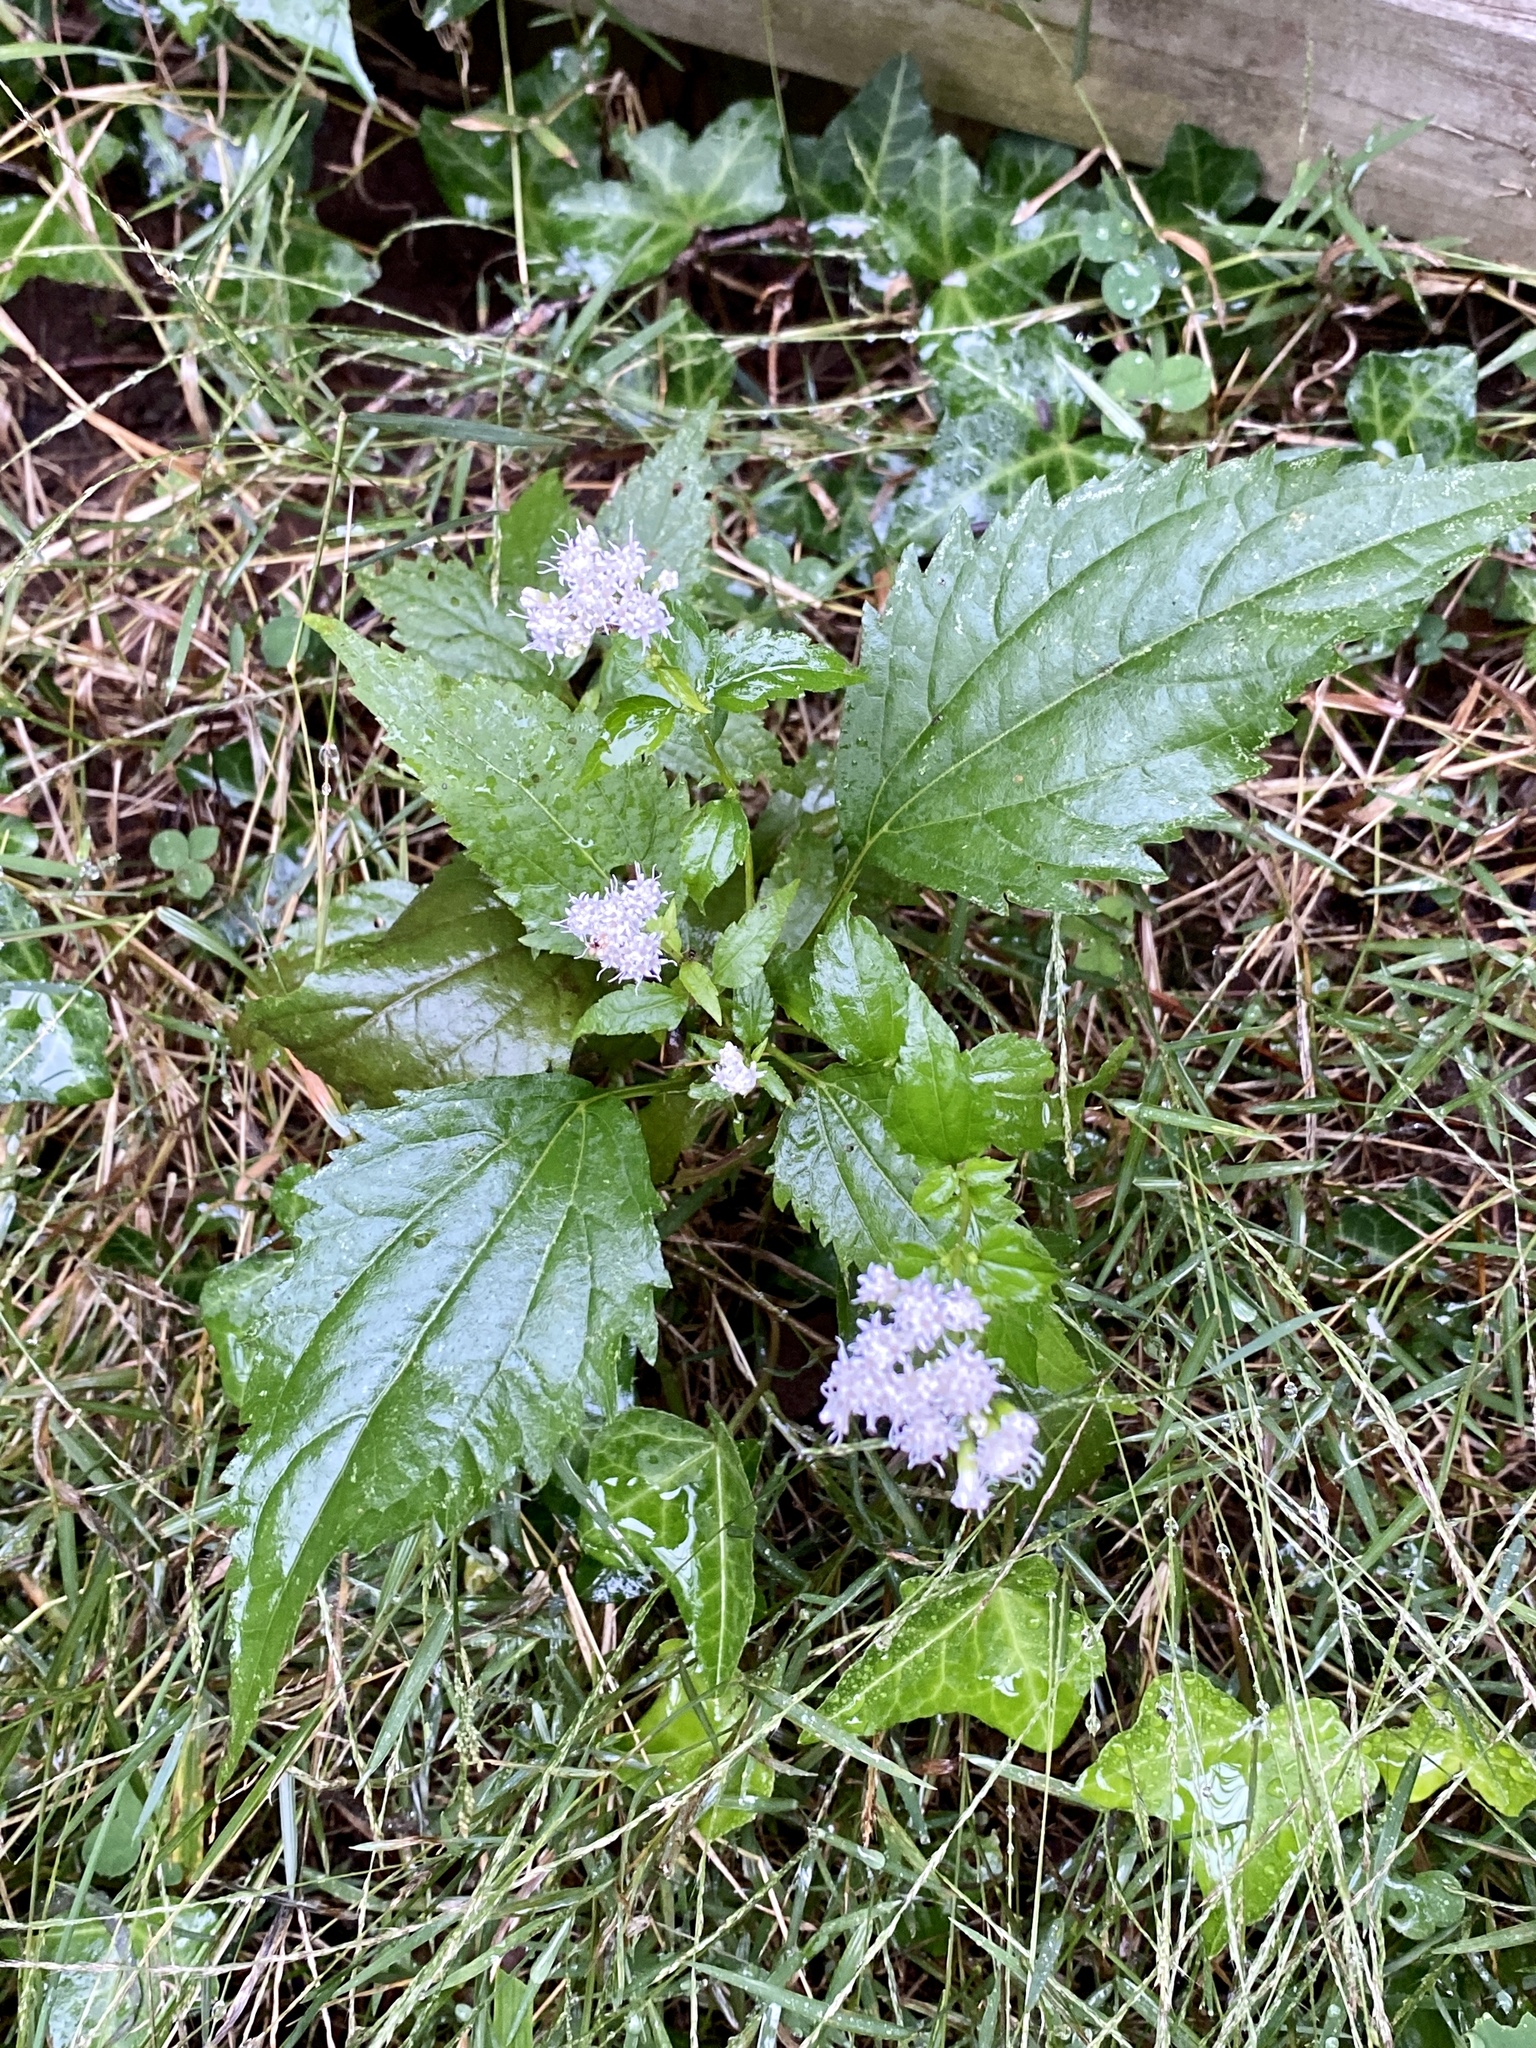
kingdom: Plantae
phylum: Tracheophyta
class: Magnoliopsida
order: Asterales
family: Asteraceae
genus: Ageratina
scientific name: Ageratina altissima
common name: White snakeroot
